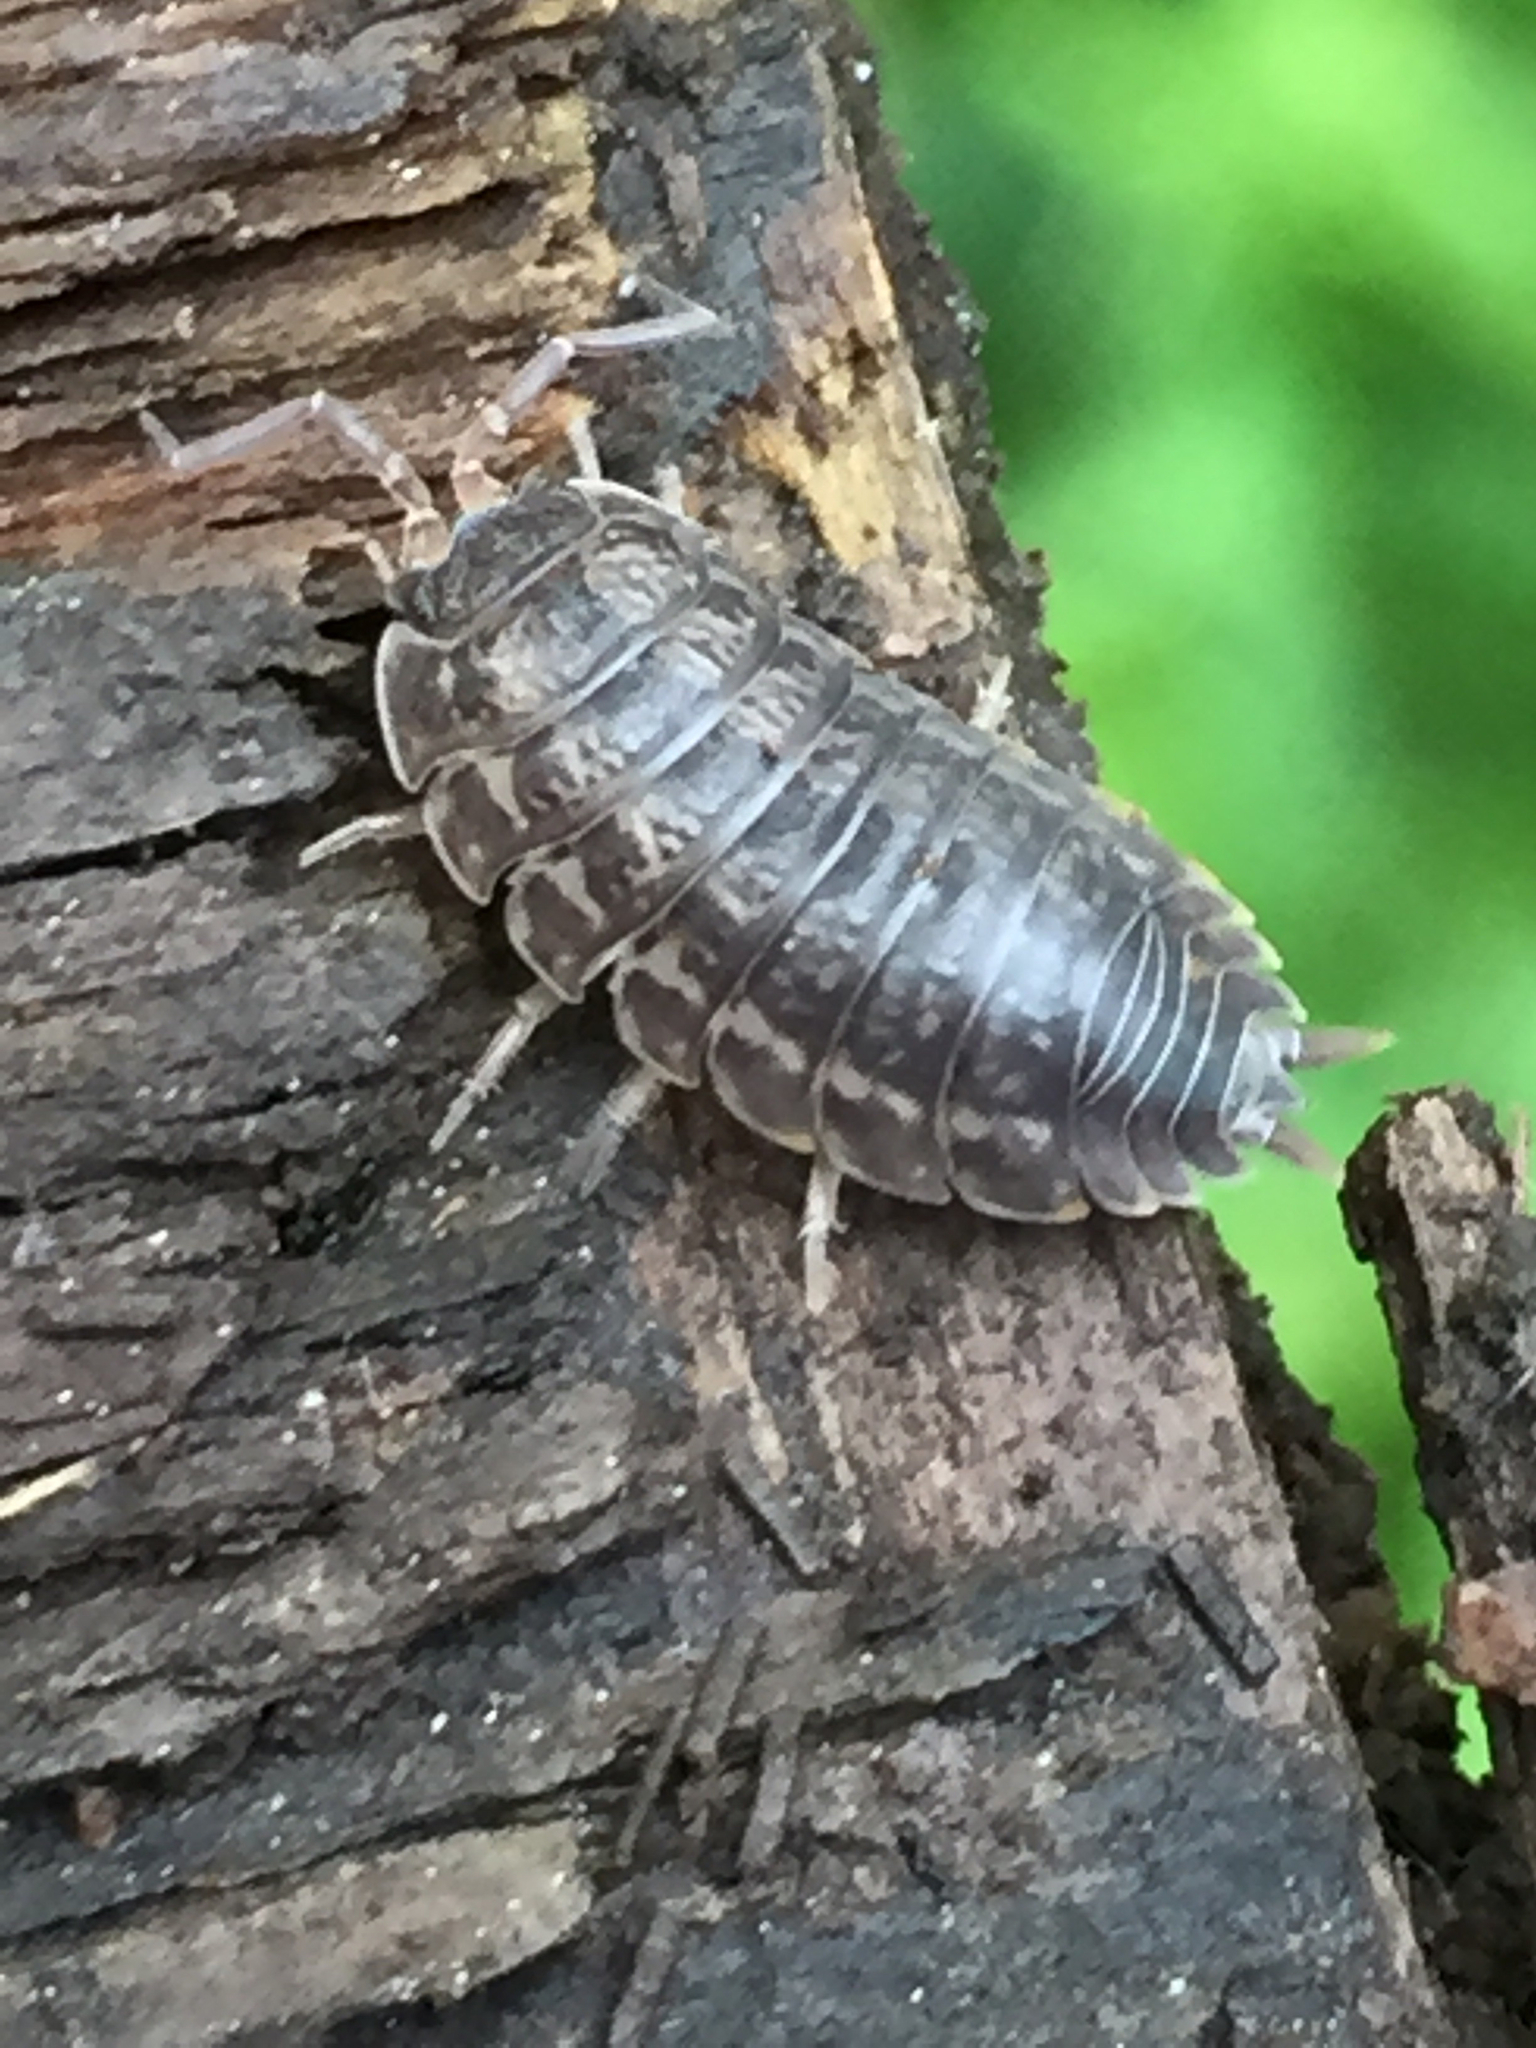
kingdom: Animalia
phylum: Arthropoda
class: Malacostraca
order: Isopoda
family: Trachelipodidae
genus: Trachelipus
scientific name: Trachelipus rathkii
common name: Isopod
